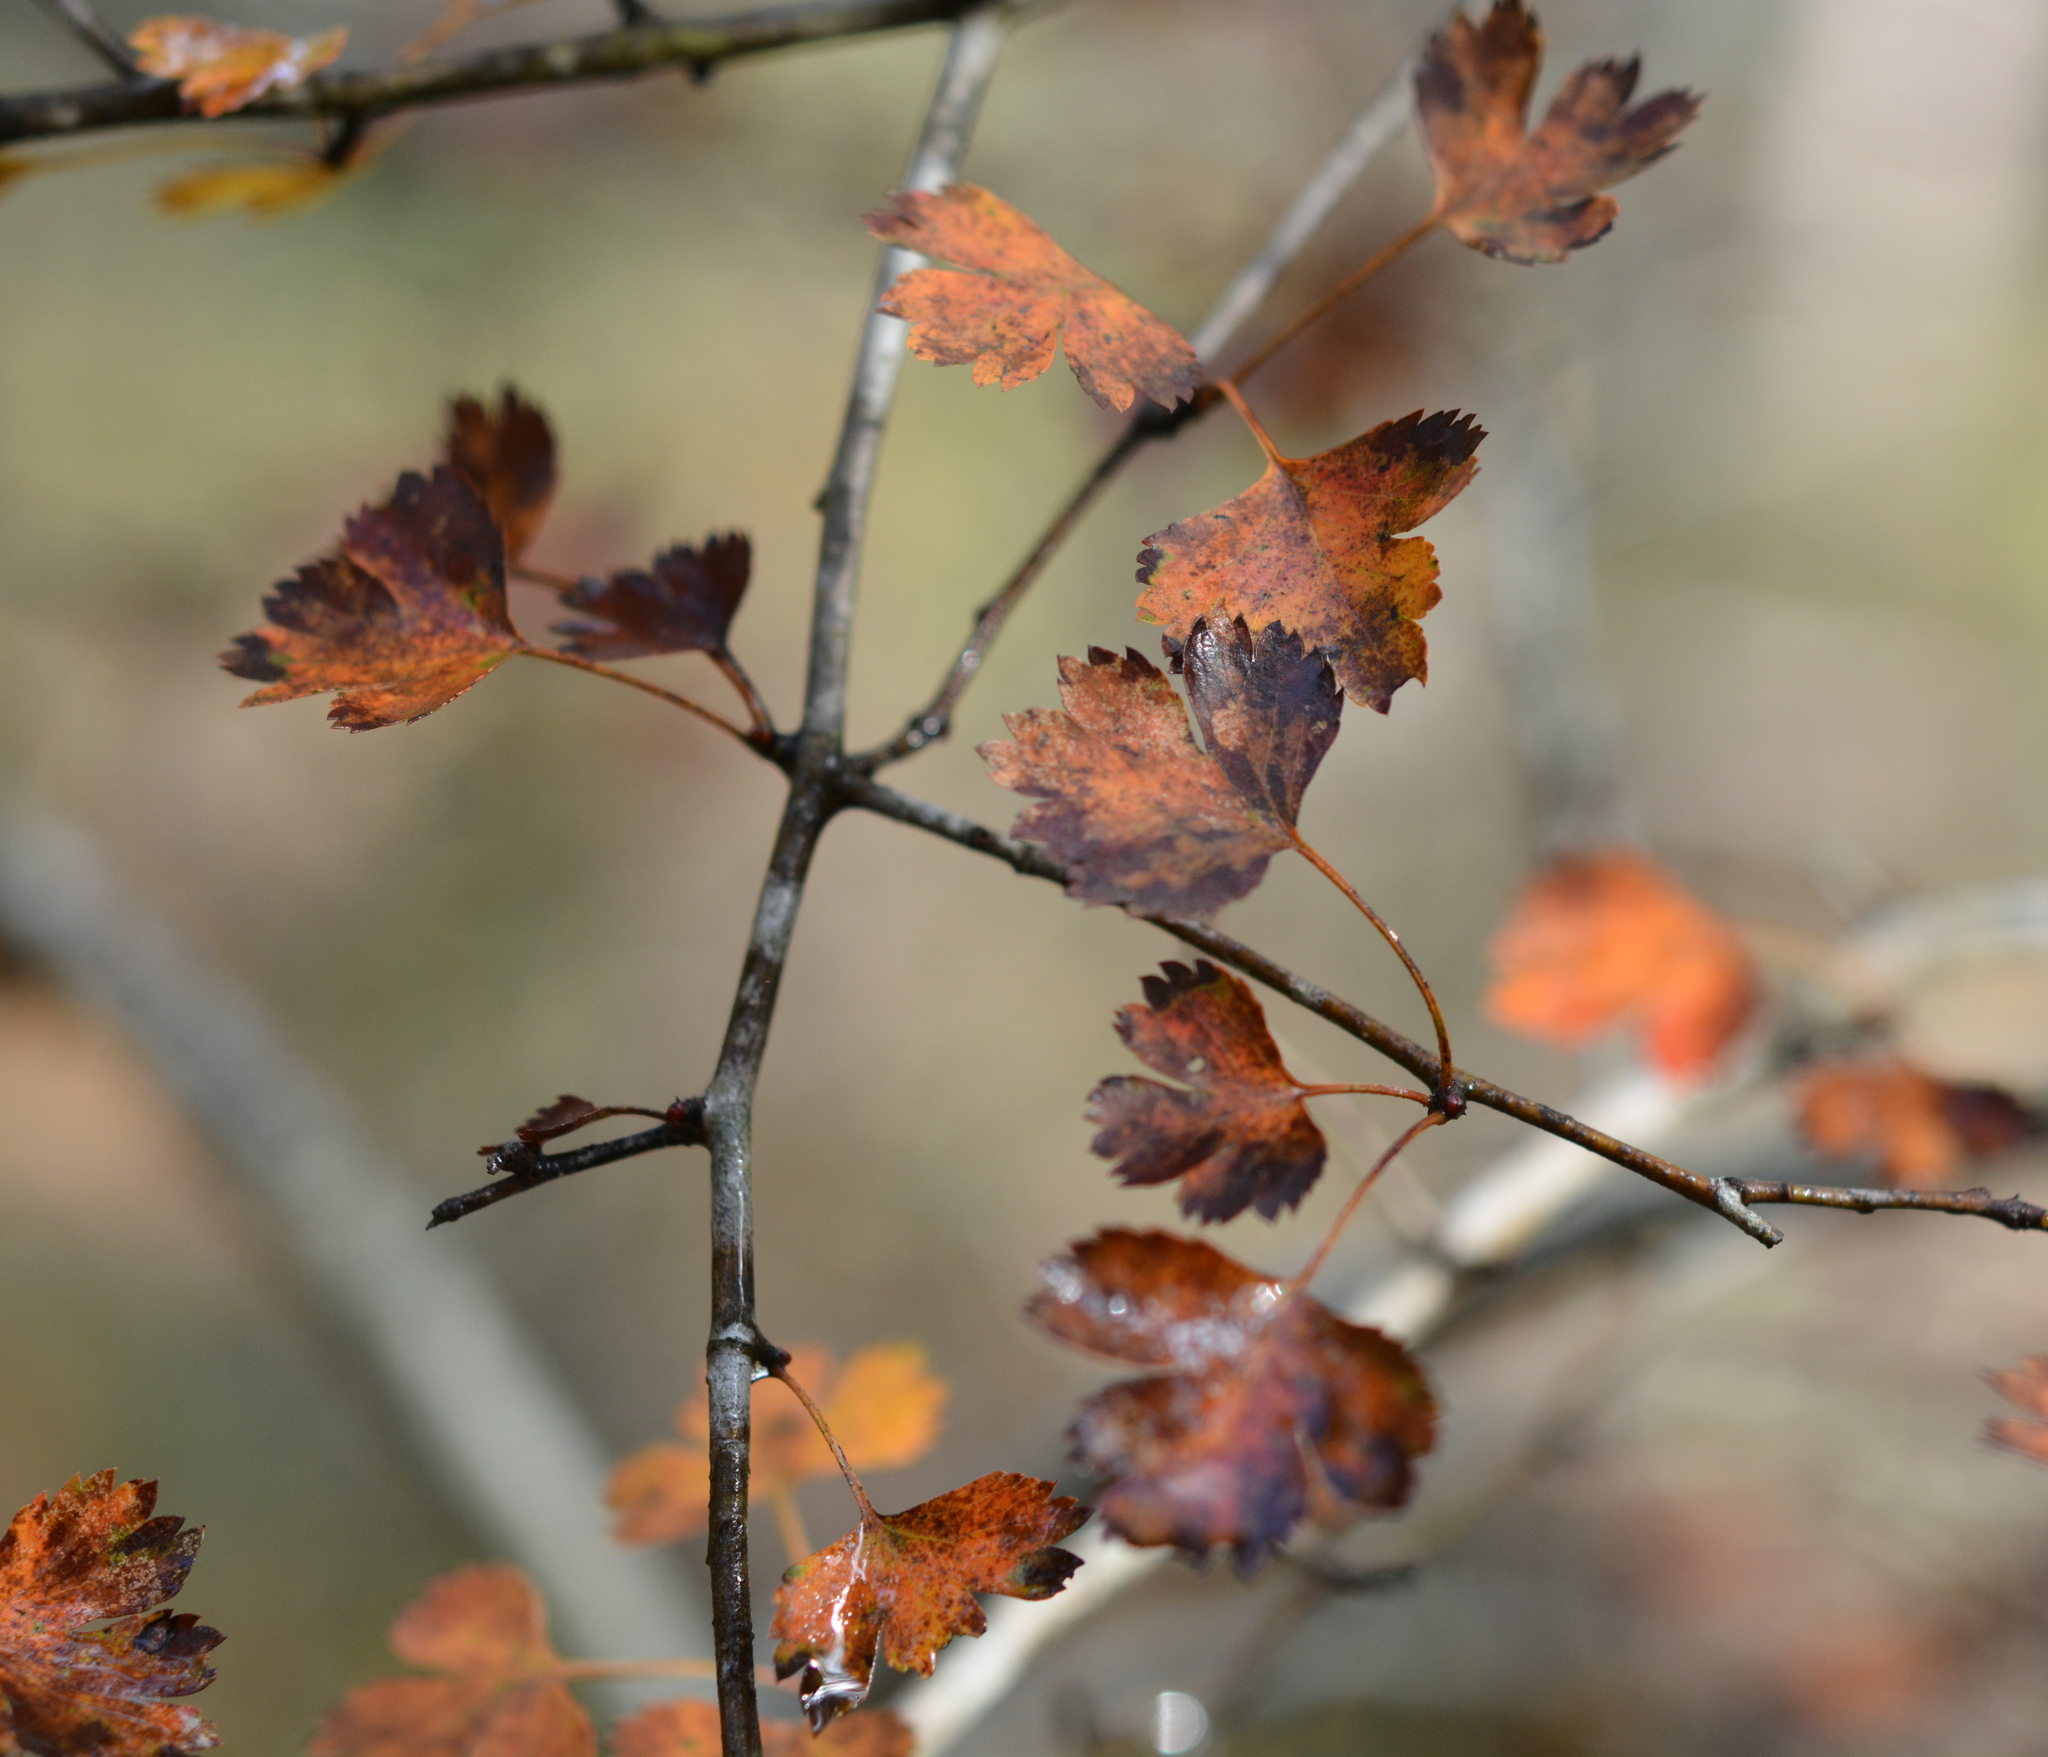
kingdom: Plantae
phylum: Tracheophyta
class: Magnoliopsida
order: Rosales
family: Rosaceae
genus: Crataegus
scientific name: Crataegus marshallii
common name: Parsley-hawthorn
